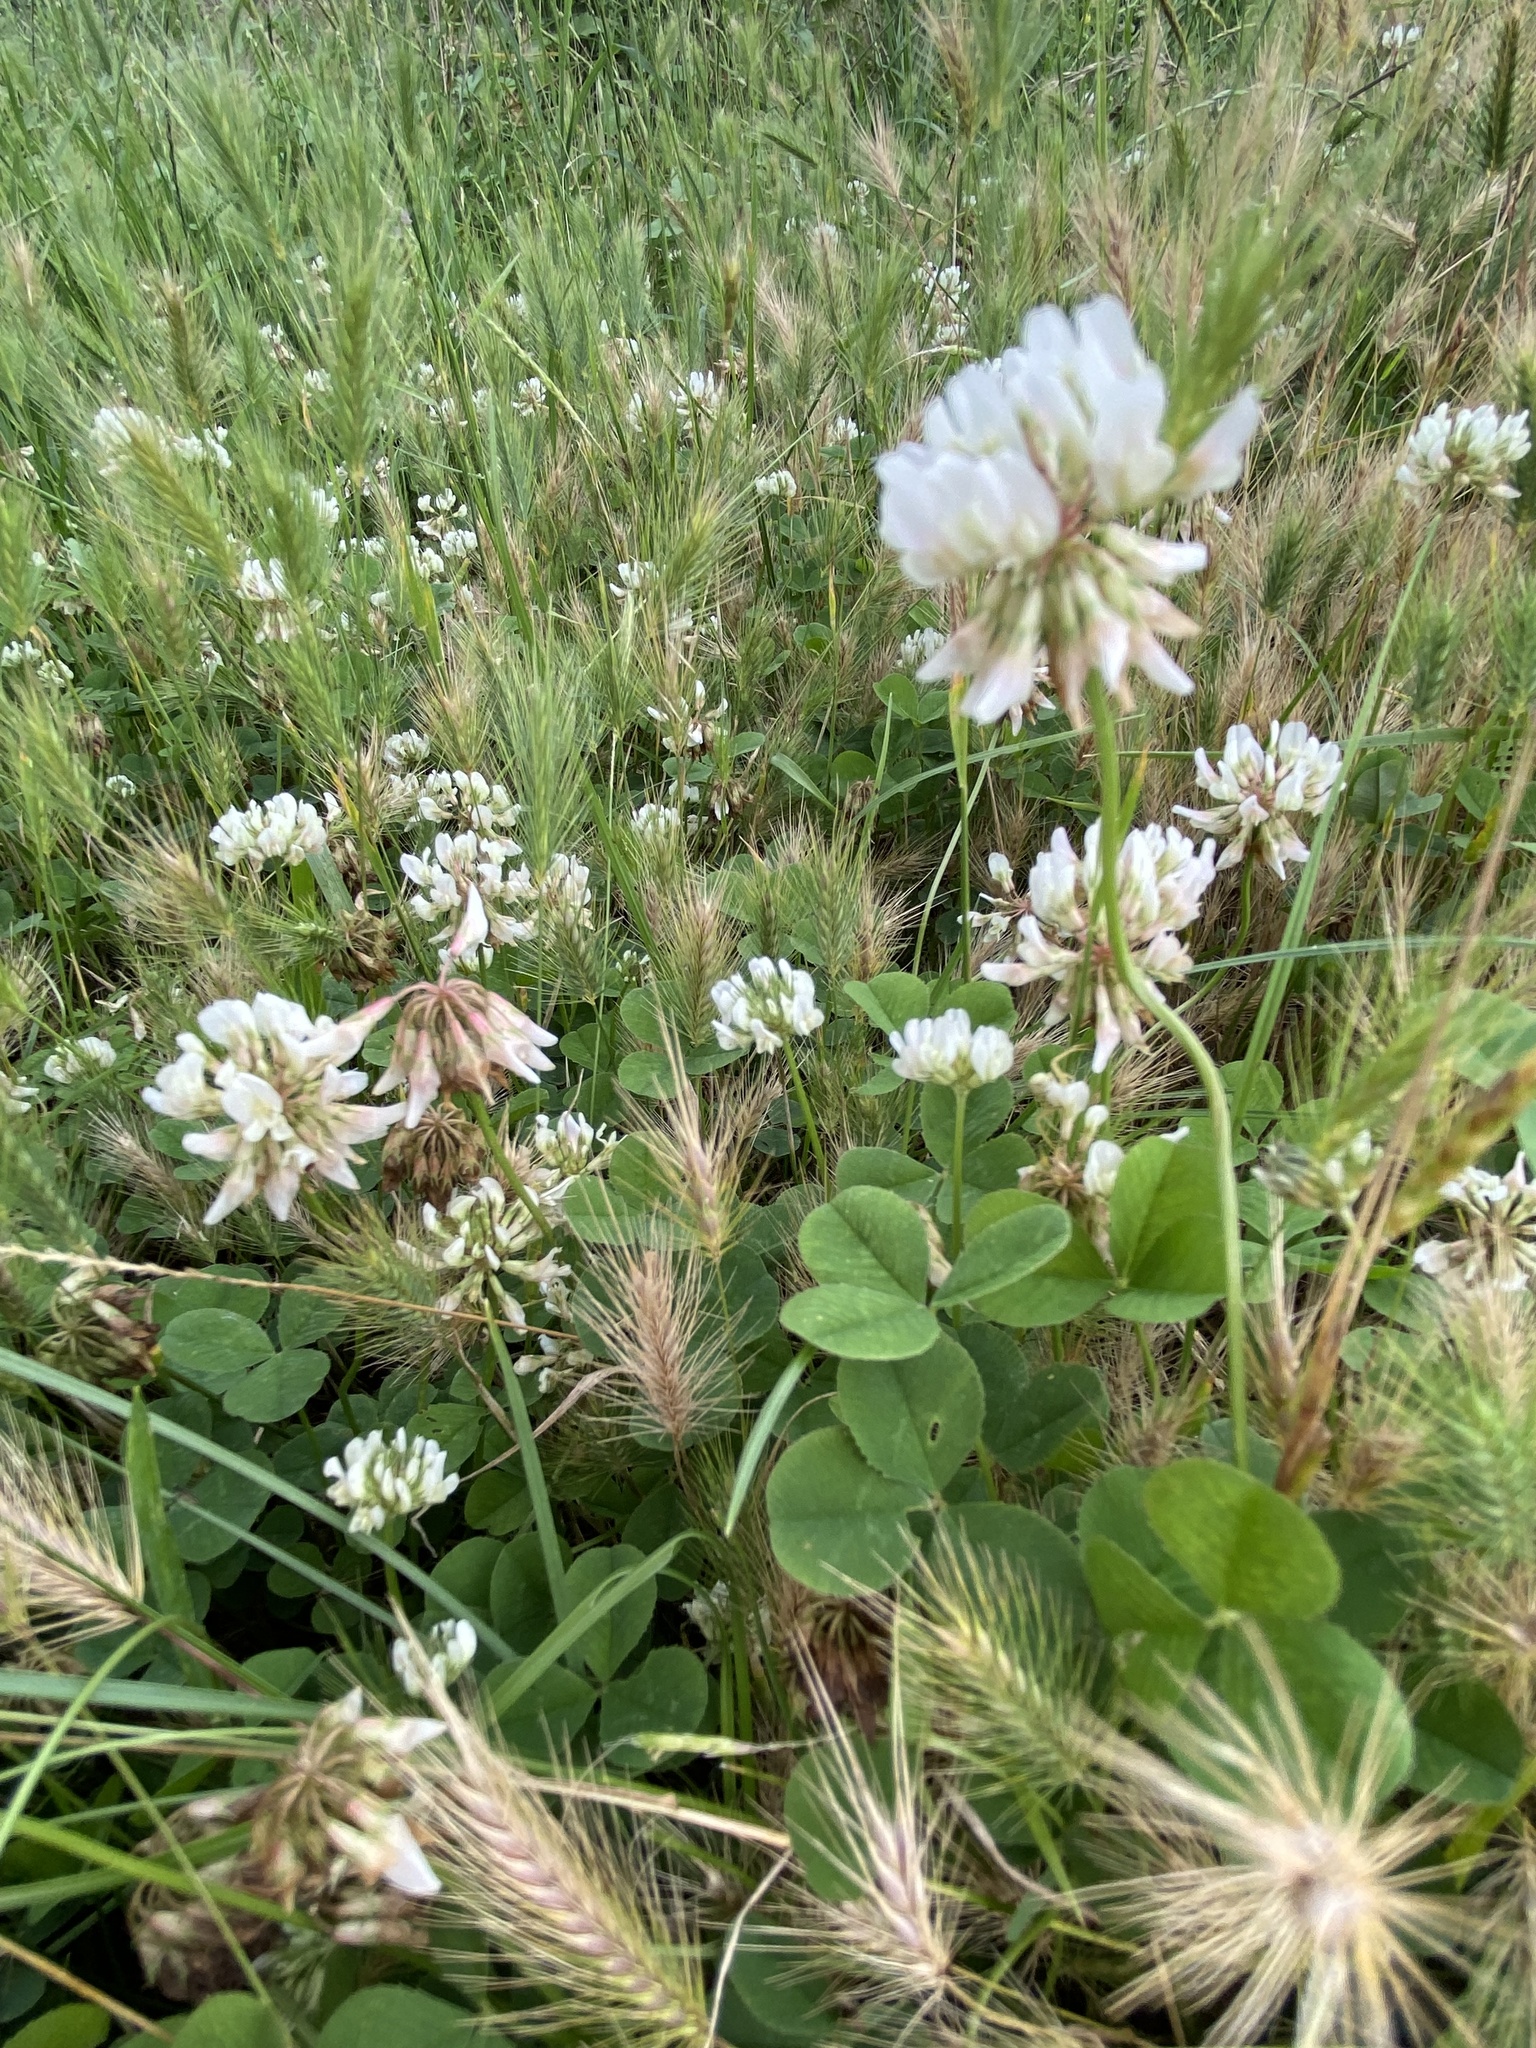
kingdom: Plantae
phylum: Tracheophyta
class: Magnoliopsida
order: Fabales
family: Fabaceae
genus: Trifolium
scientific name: Trifolium repens
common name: White clover
